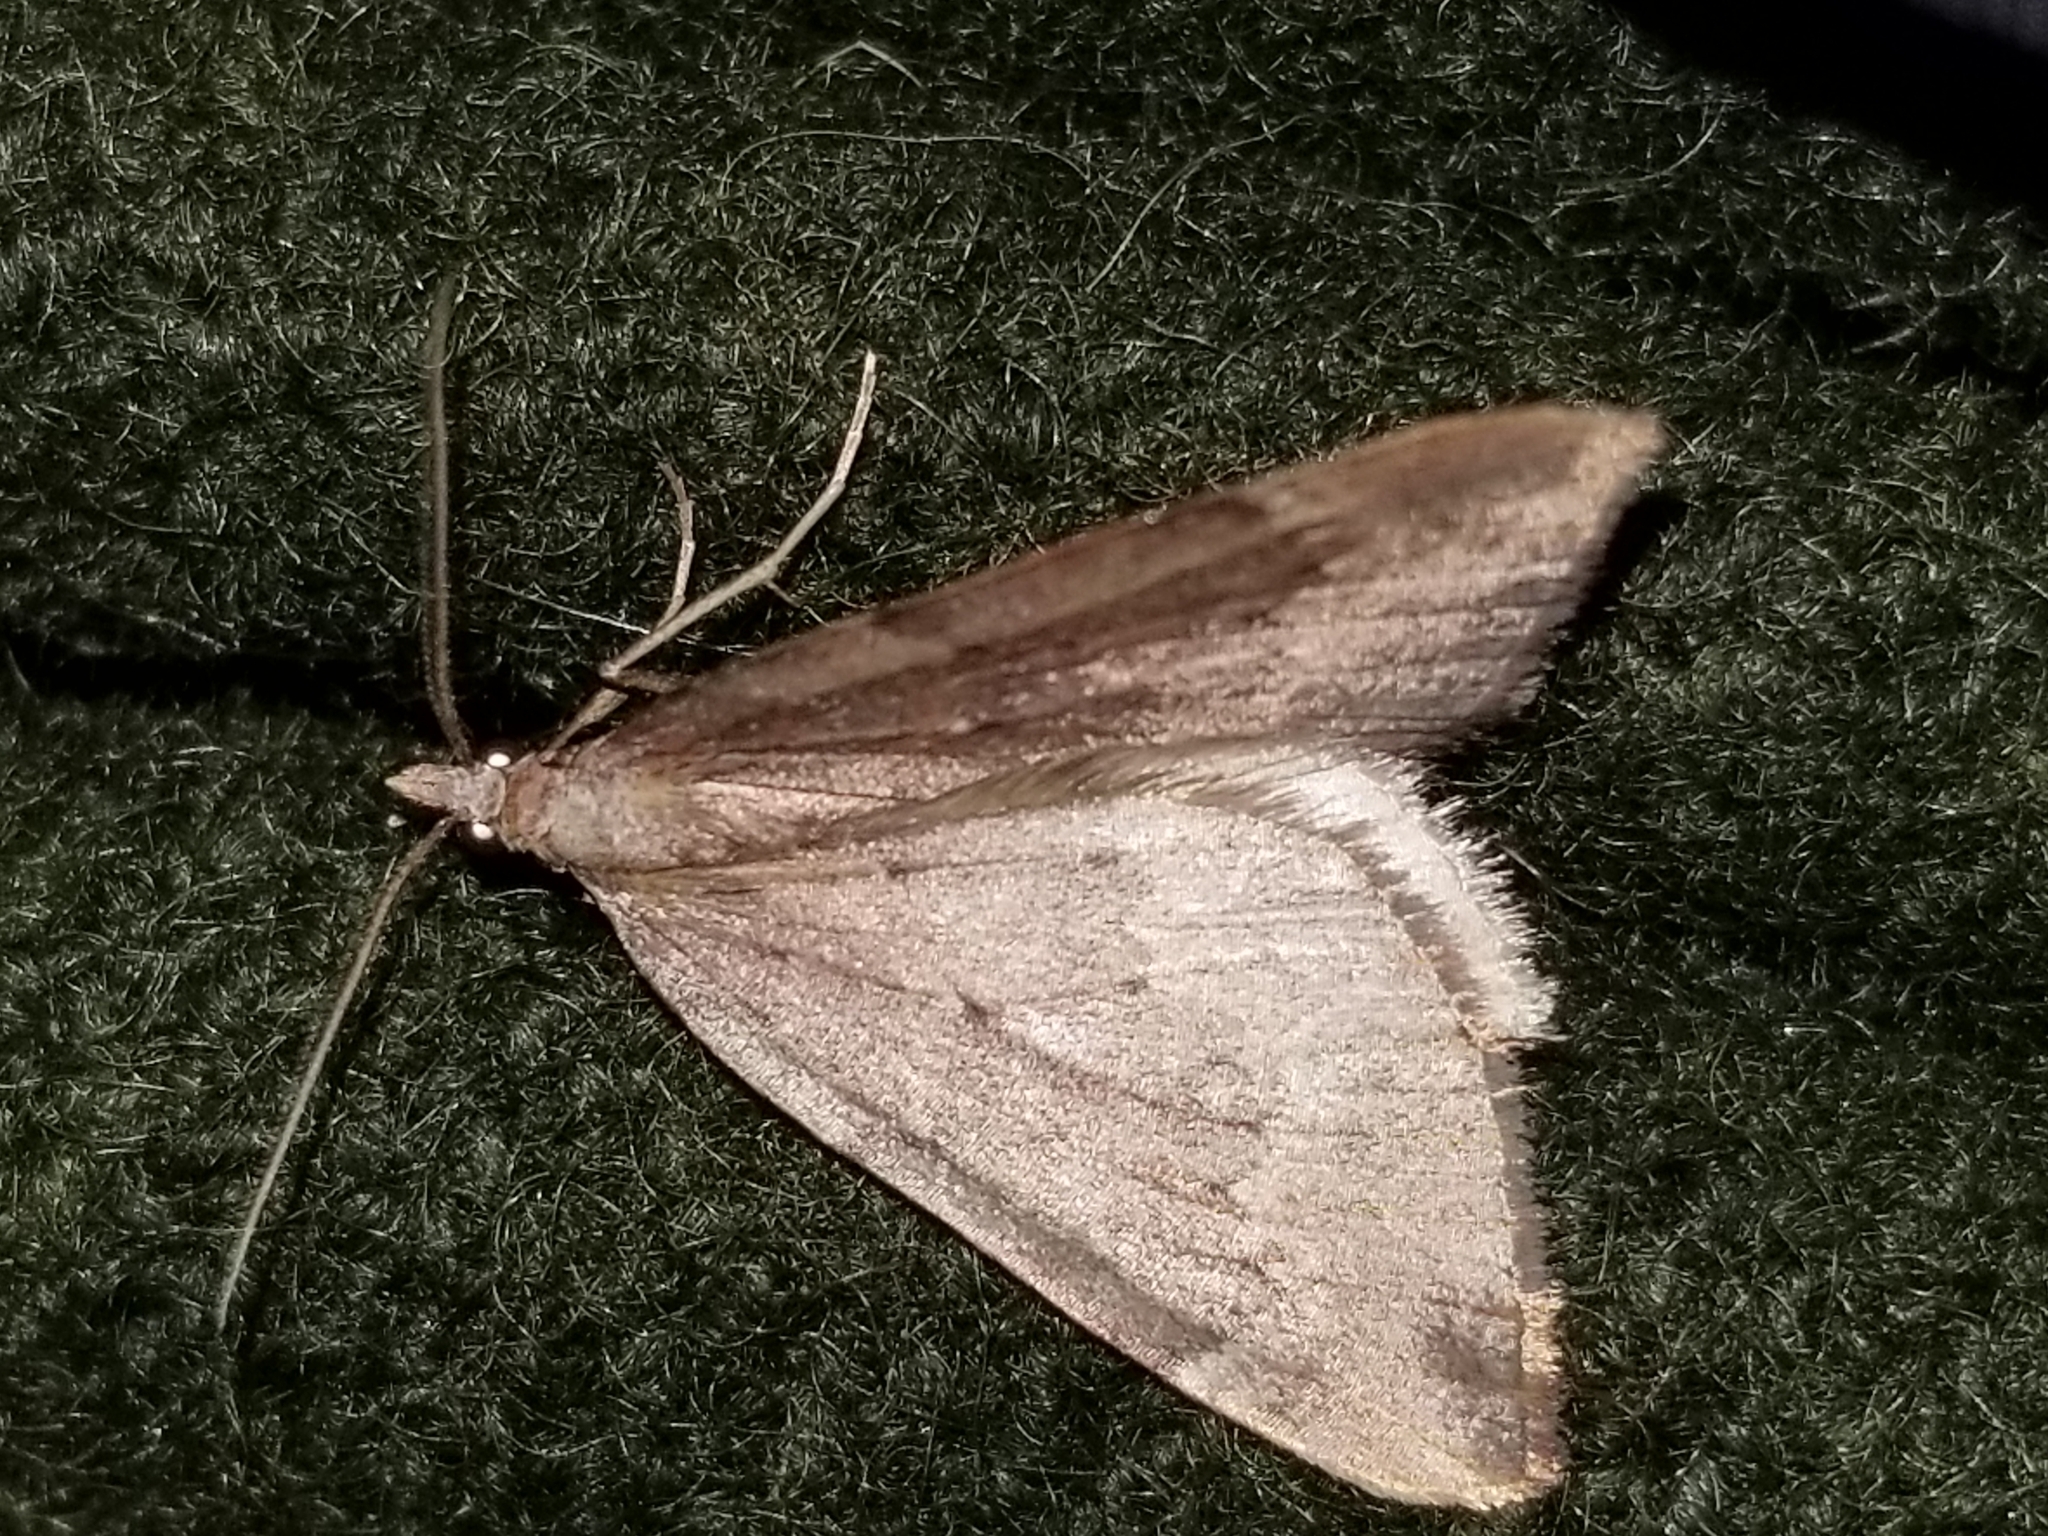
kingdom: Animalia
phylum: Arthropoda
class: Insecta
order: Lepidoptera
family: Geometridae
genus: Xanthorhoe
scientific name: Xanthorhoe occulta
